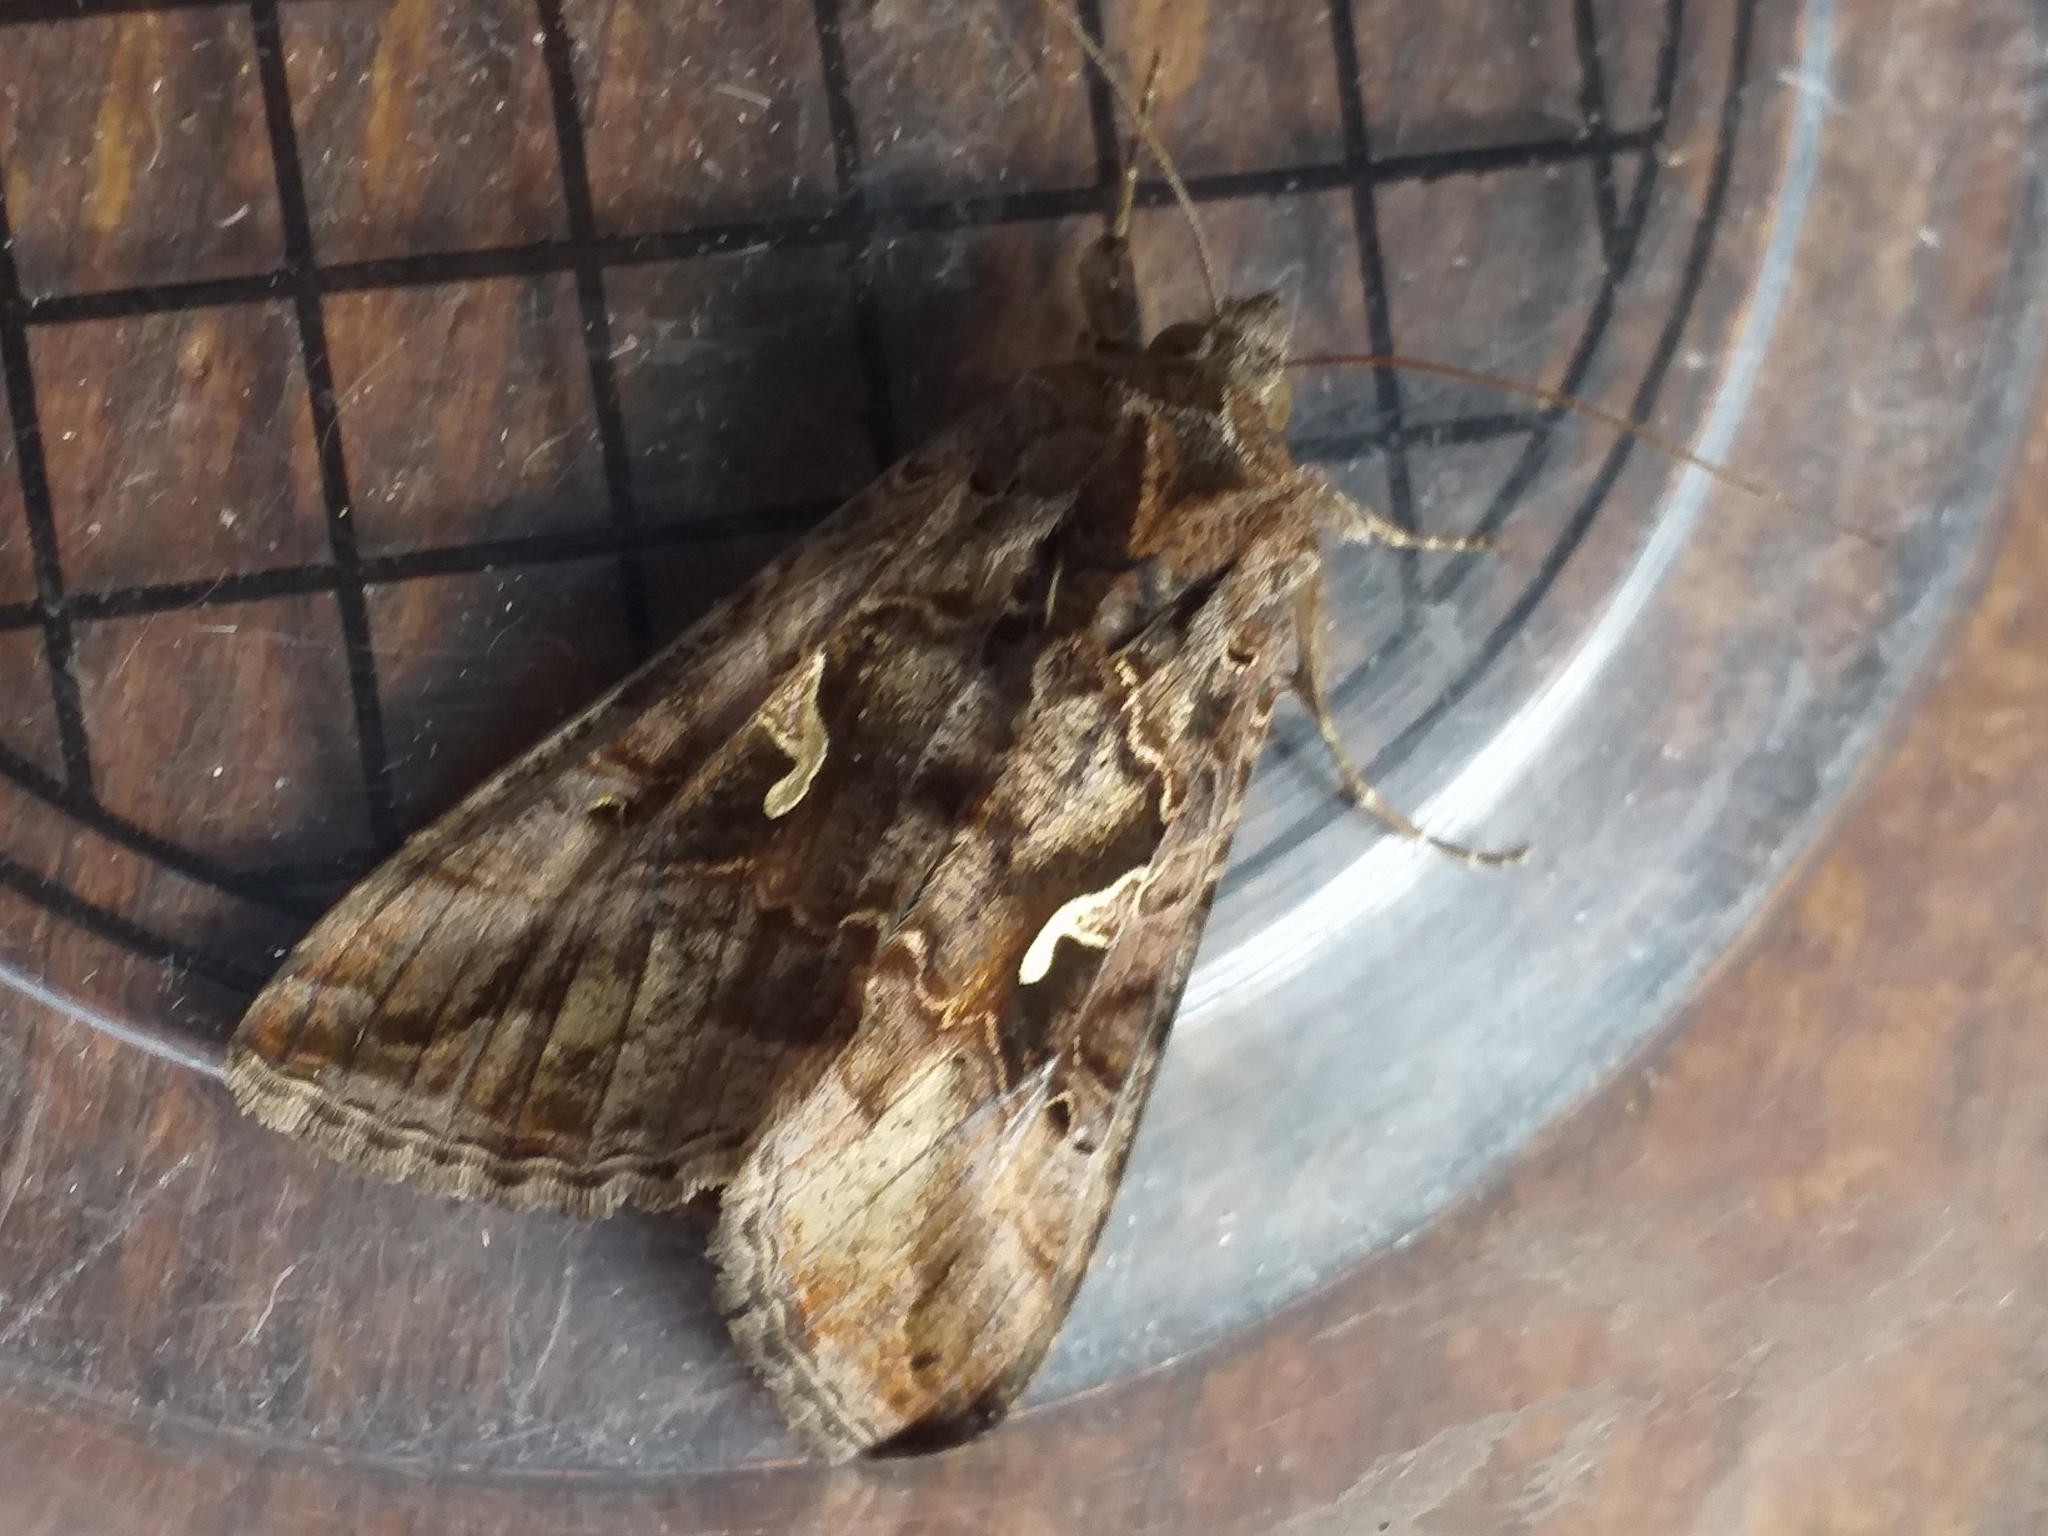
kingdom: Animalia
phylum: Arthropoda
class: Insecta
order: Lepidoptera
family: Noctuidae
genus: Autographa
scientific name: Autographa gamma
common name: Silver y
